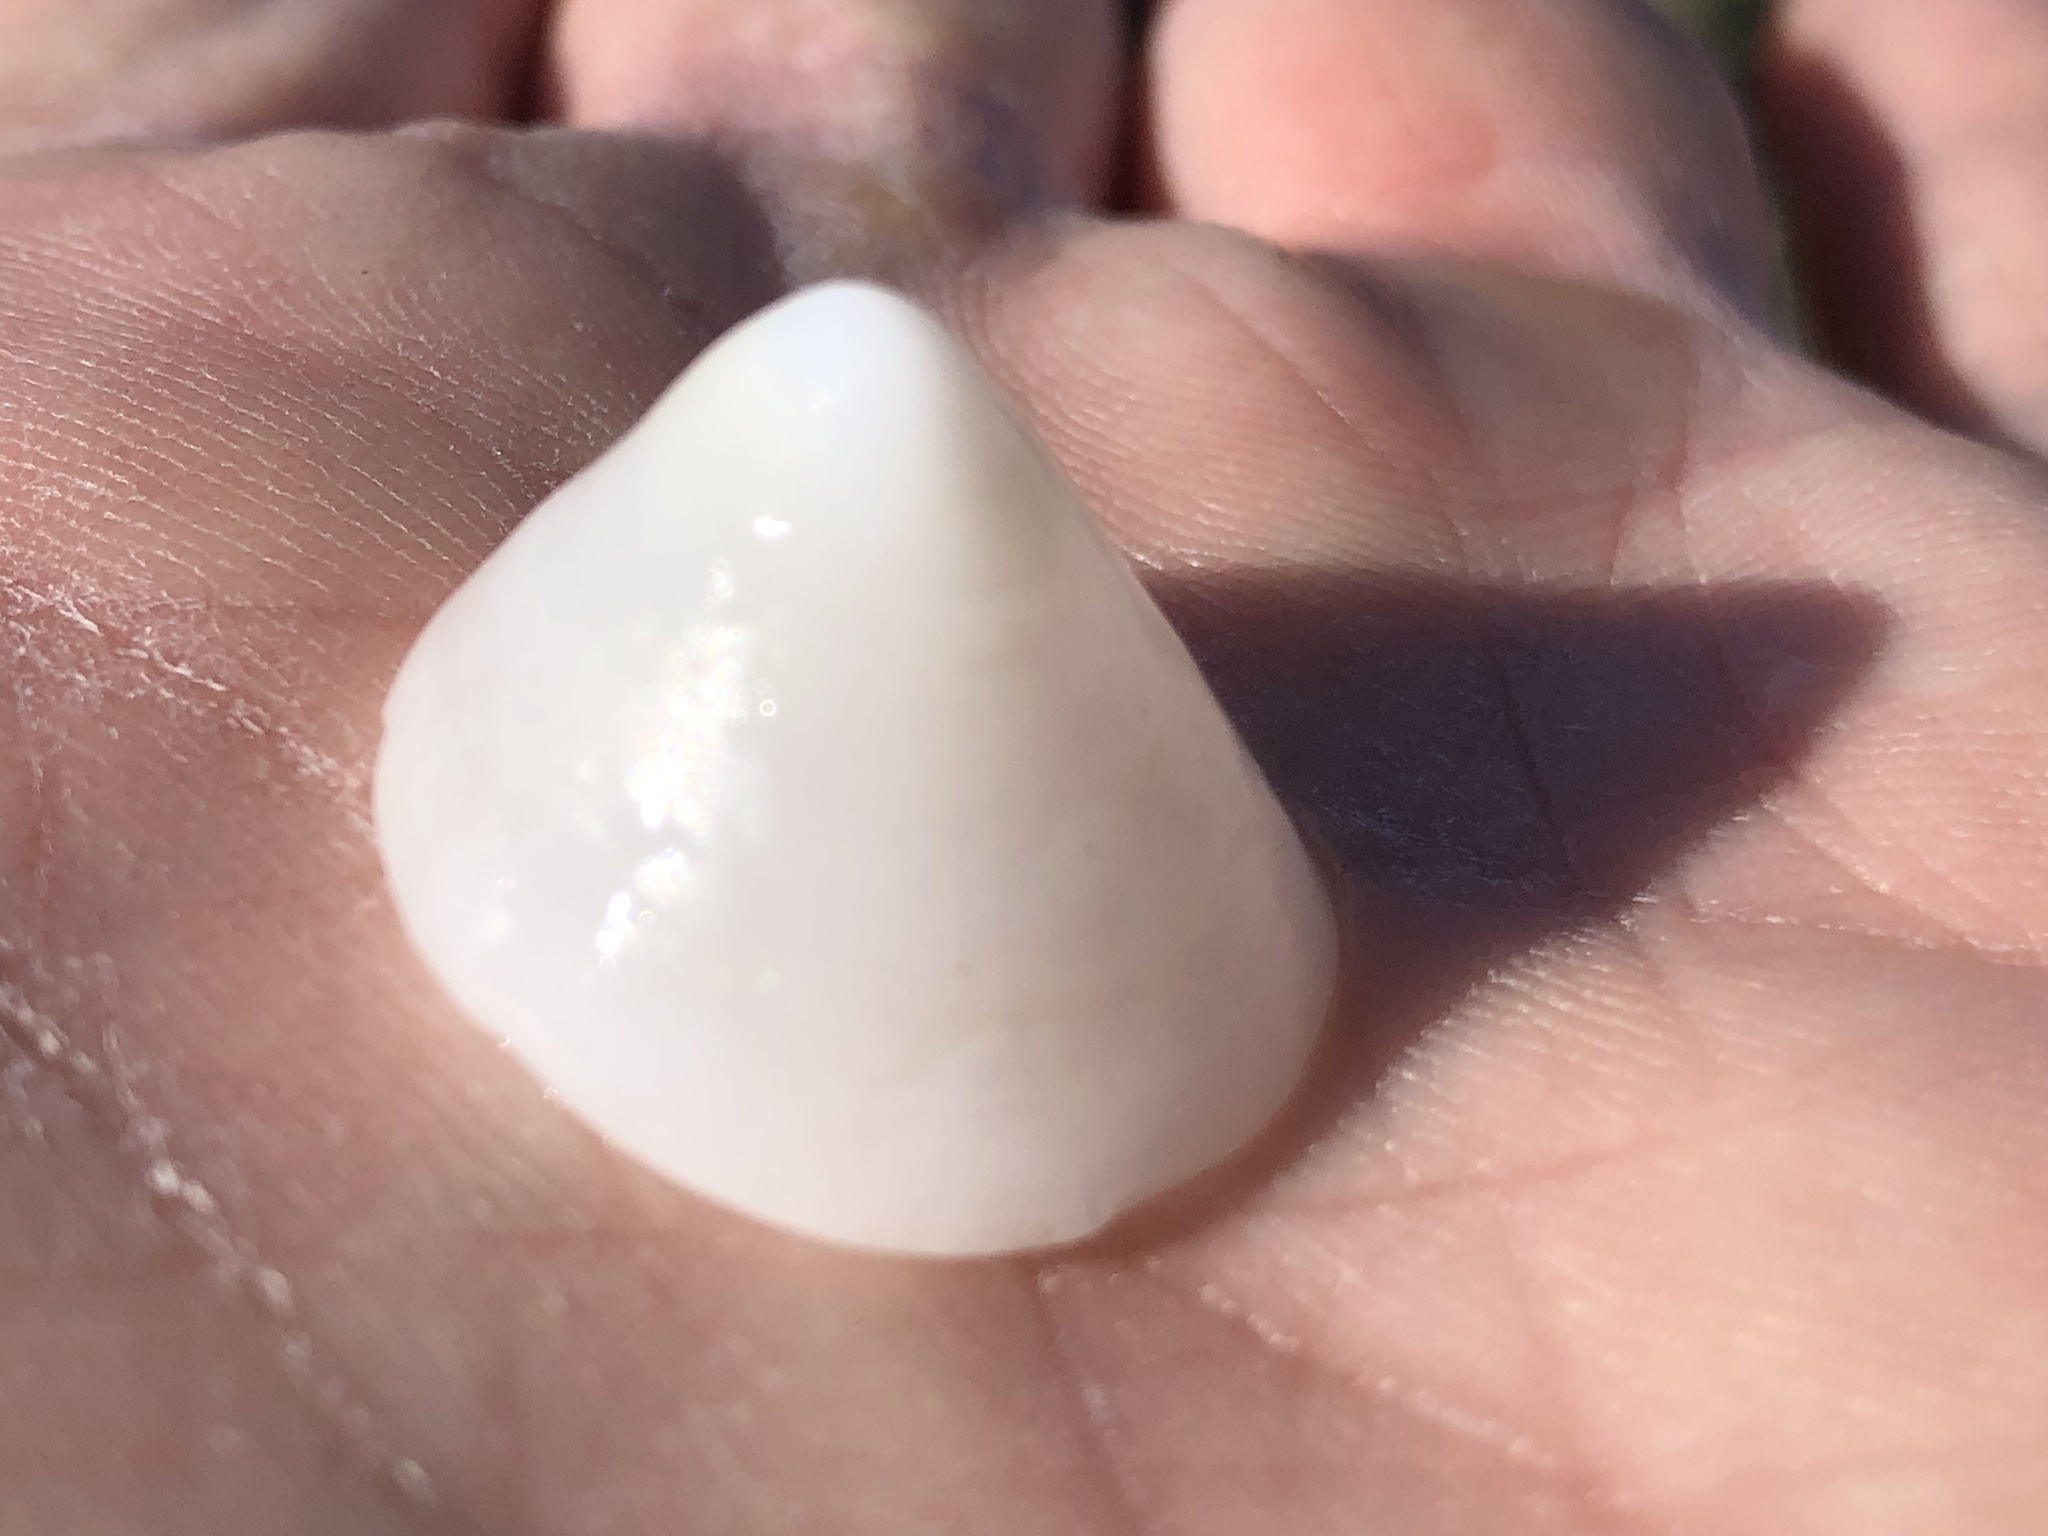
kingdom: Animalia
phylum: Mollusca
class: Gastropoda
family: Acmaeidae
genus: Acmaea
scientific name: Acmaea mitra
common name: Pacific white cap limpet
